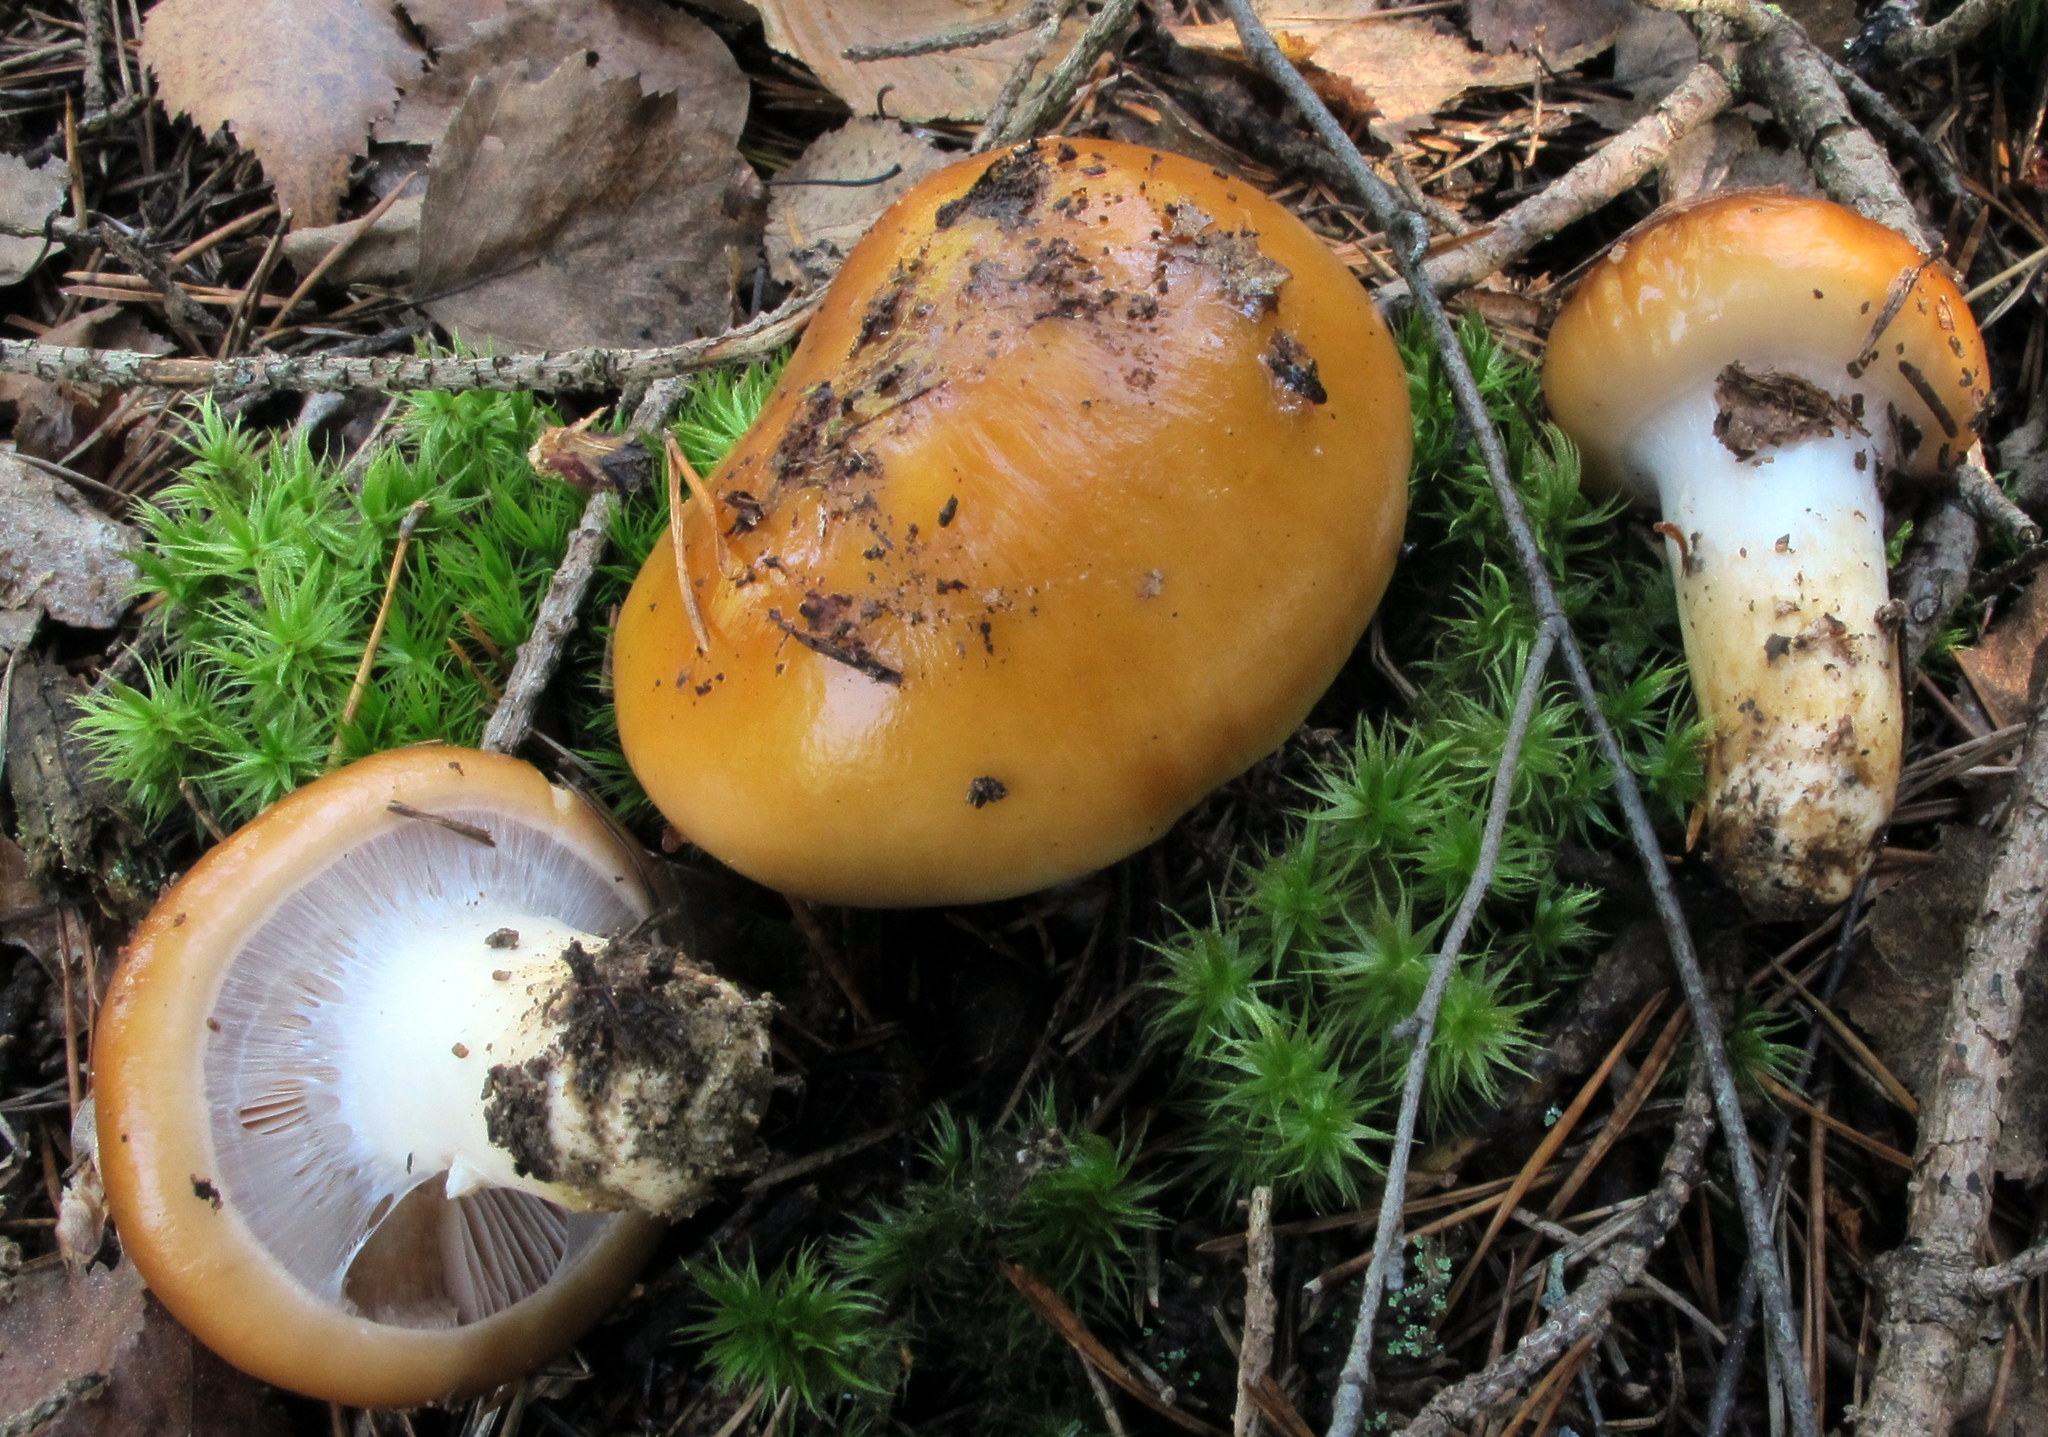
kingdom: Fungi
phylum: Basidiomycota
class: Agaricomycetes
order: Agaricales
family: Cortinariaceae
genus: Cortinarius
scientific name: Cortinarius mucosus
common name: Orange webcap
